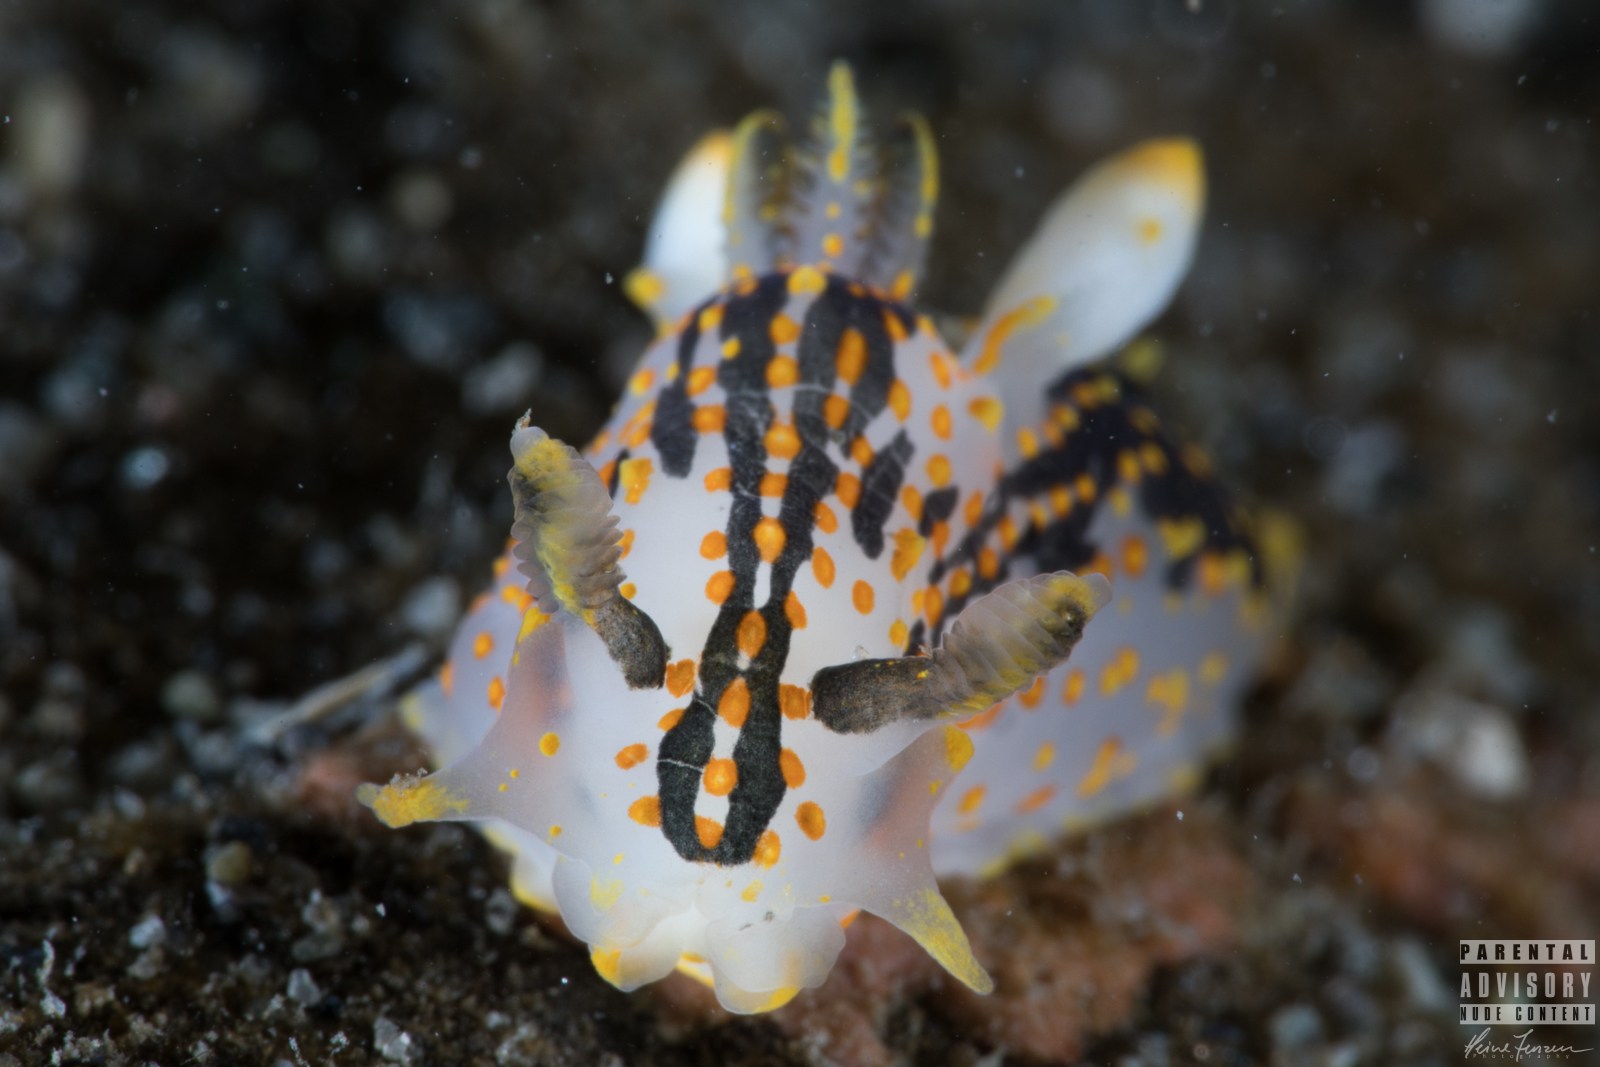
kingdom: Animalia
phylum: Mollusca
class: Gastropoda
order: Nudibranchia
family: Polyceridae
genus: Polycera
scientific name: Polycera quadrilineata
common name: Four-striped polycera
